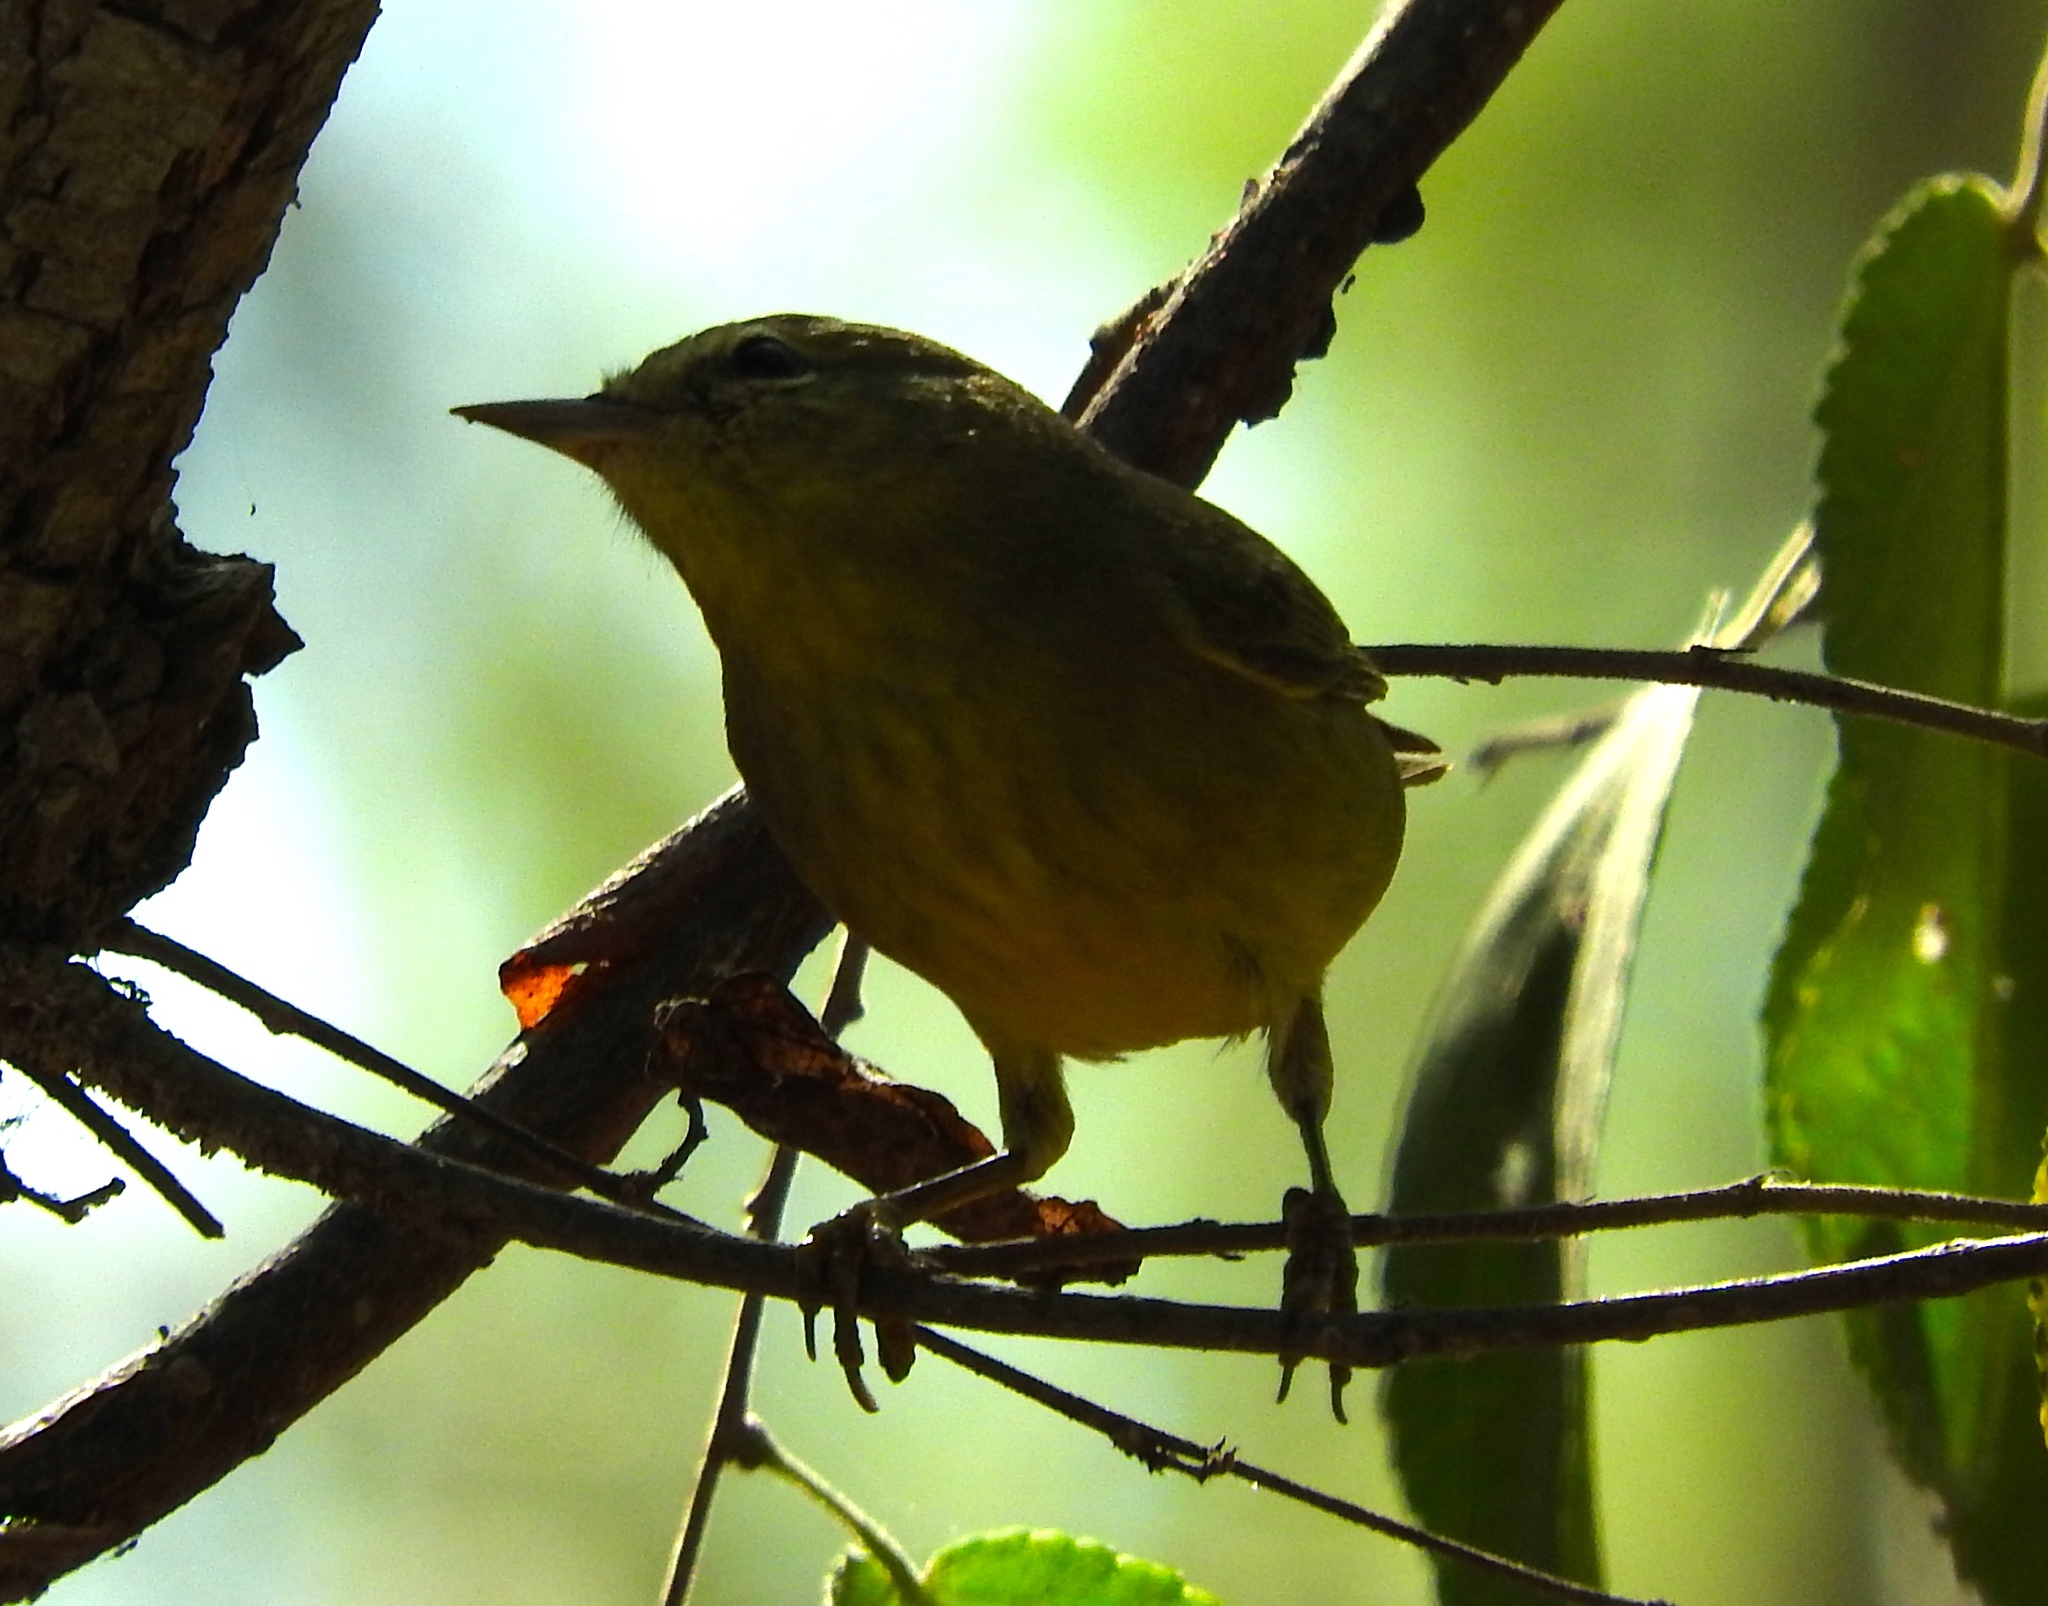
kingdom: Animalia
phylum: Chordata
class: Aves
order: Passeriformes
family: Parulidae
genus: Setophaga
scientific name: Setophaga petechia
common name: Yellow warbler
